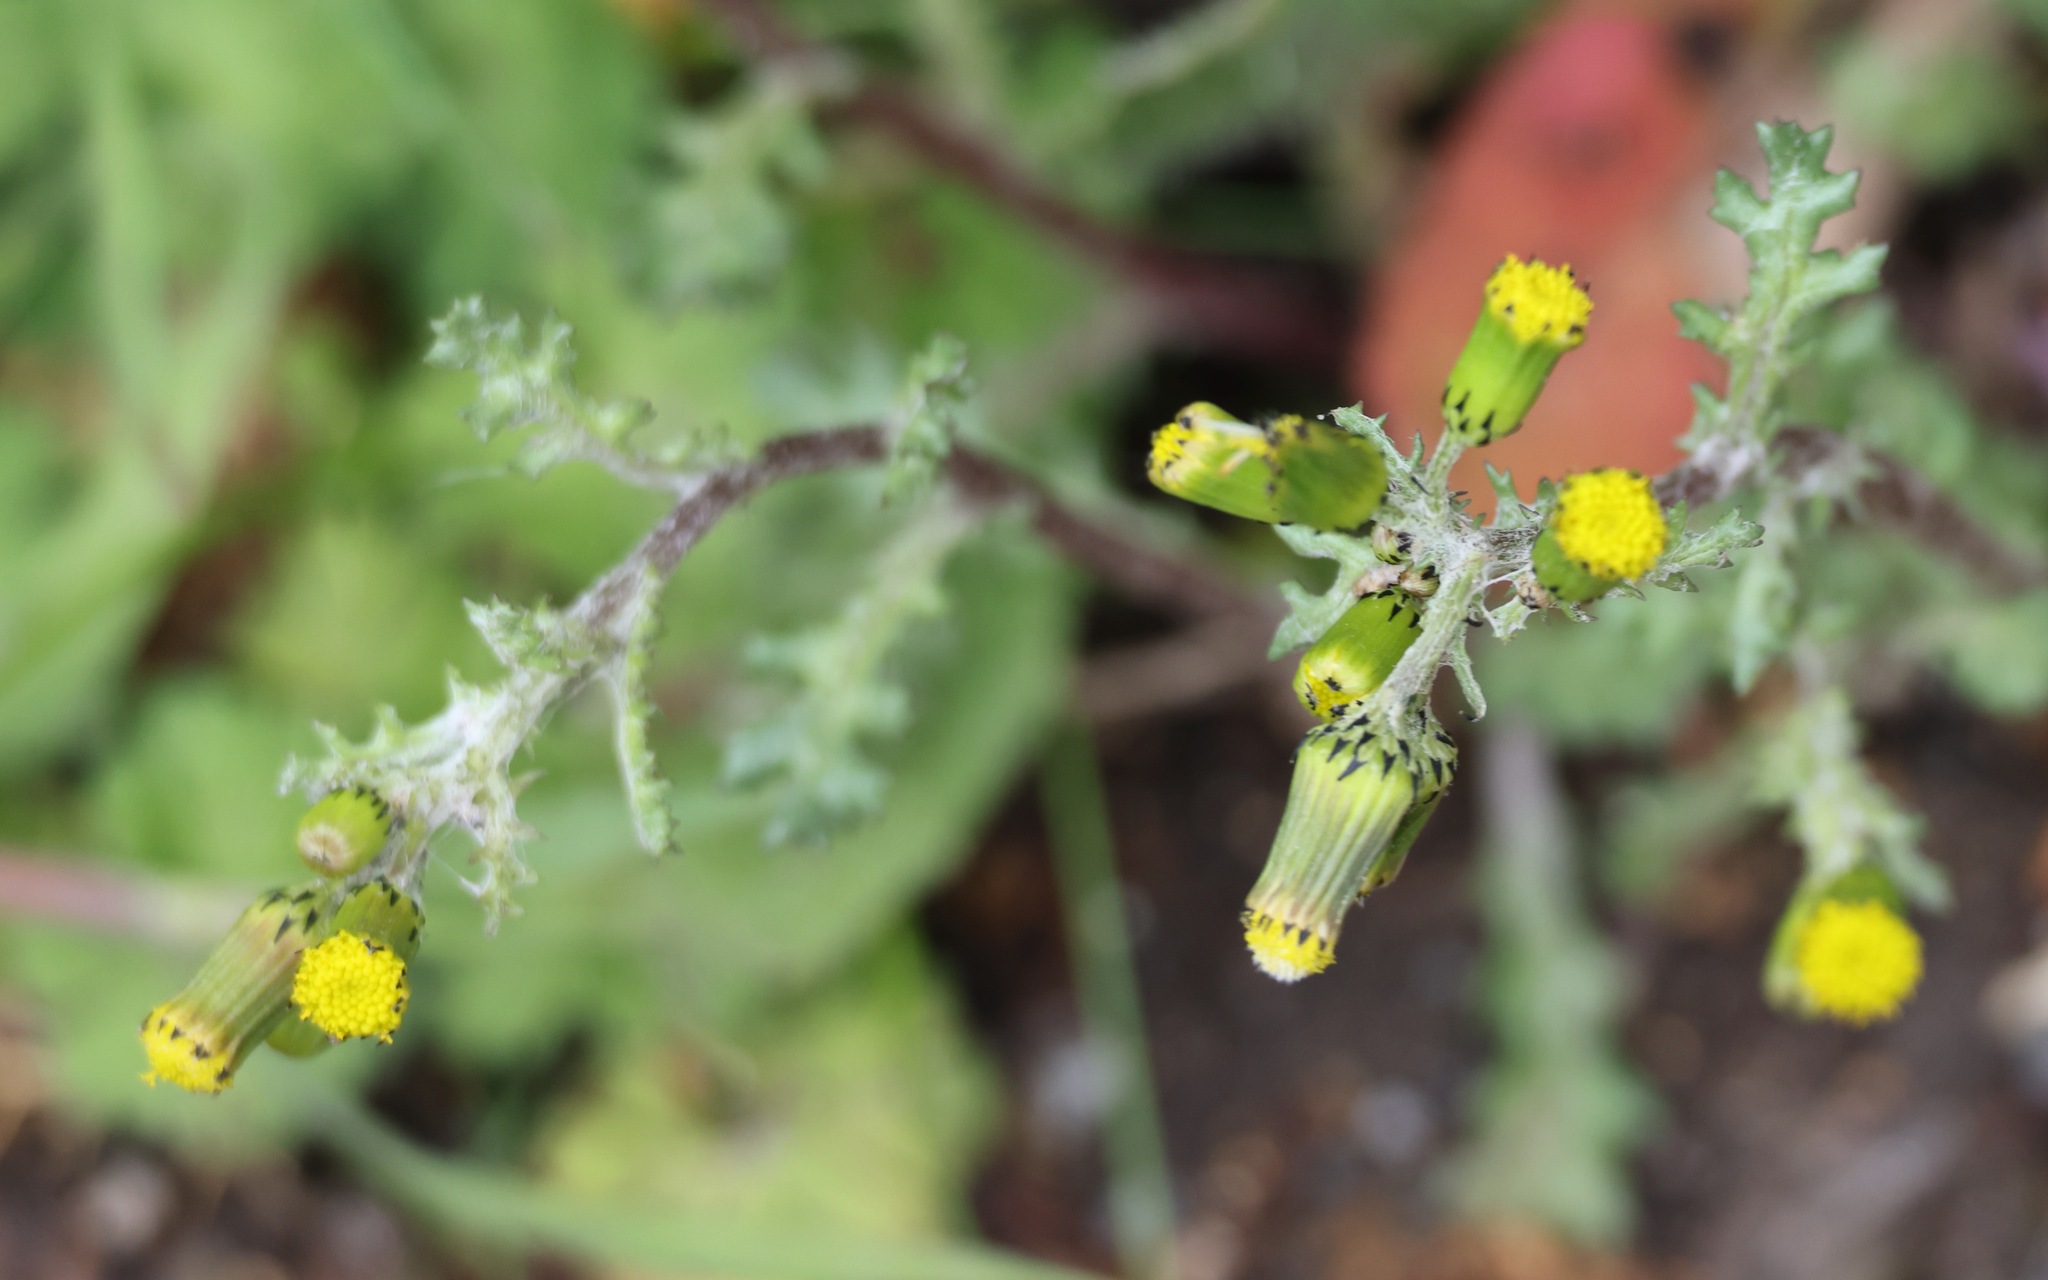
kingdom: Plantae
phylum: Tracheophyta
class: Magnoliopsida
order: Asterales
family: Asteraceae
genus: Senecio
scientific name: Senecio vulgaris
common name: Old-man-in-the-spring
